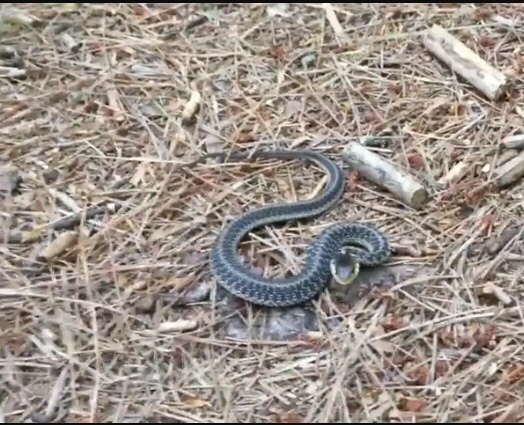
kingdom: Animalia
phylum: Chordata
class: Squamata
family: Colubridae
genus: Thamnophis
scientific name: Thamnophis sirtalis
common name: Common garter snake
